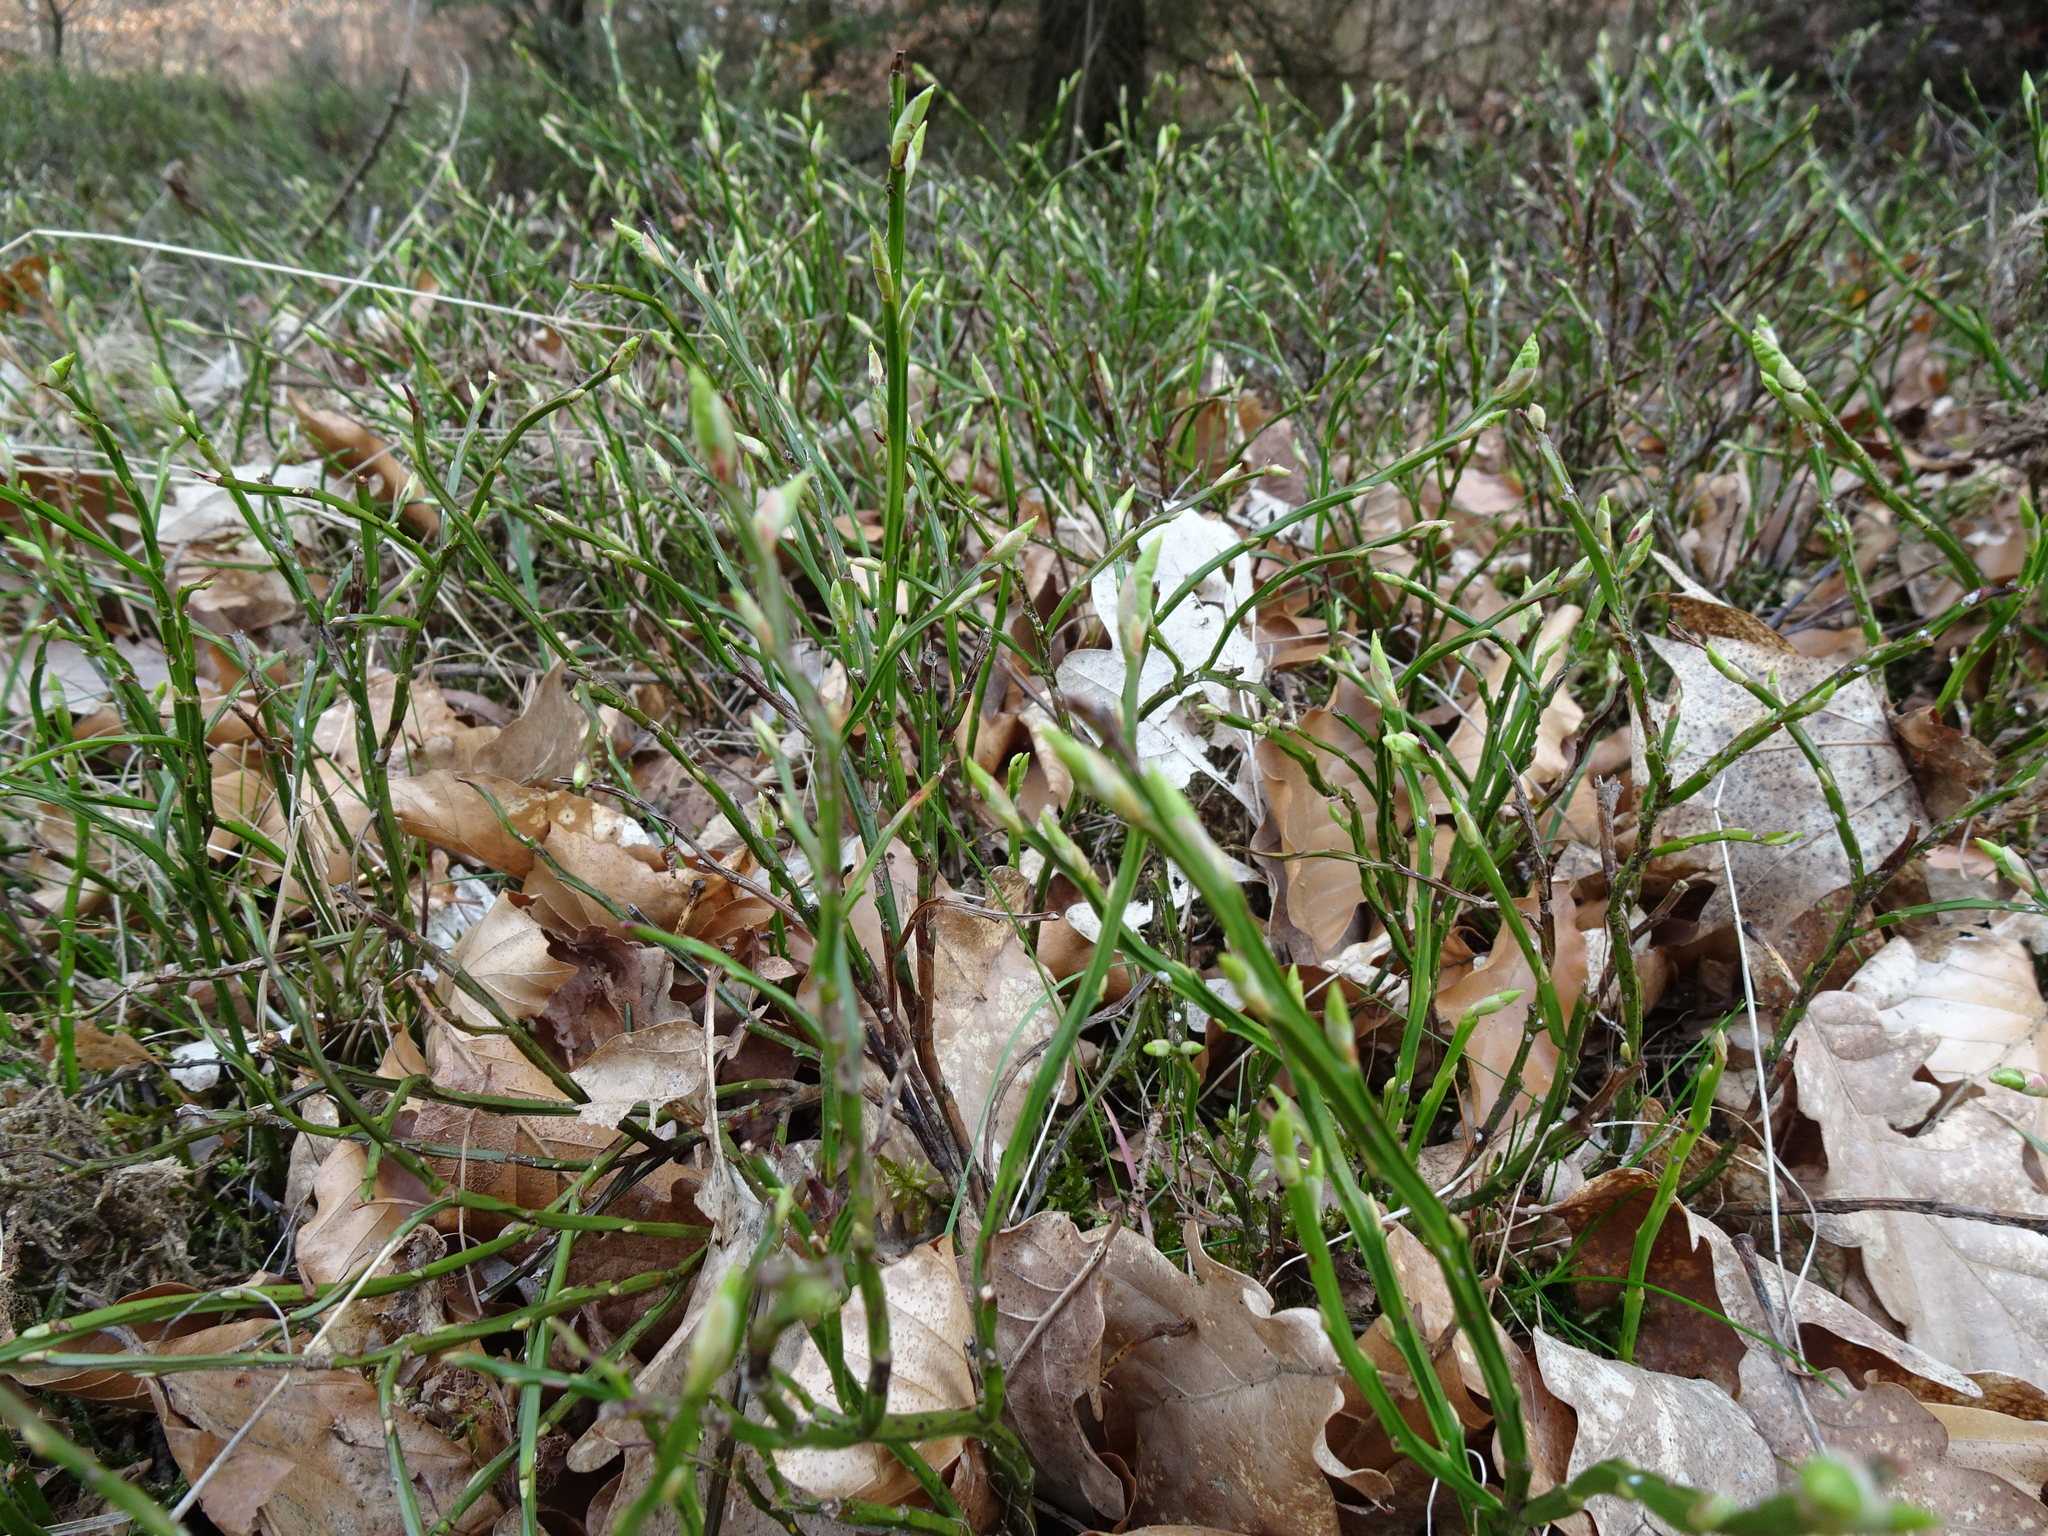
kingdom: Plantae
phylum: Tracheophyta
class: Magnoliopsida
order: Ericales
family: Ericaceae
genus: Vaccinium
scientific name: Vaccinium myrtillus
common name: Bilberry
